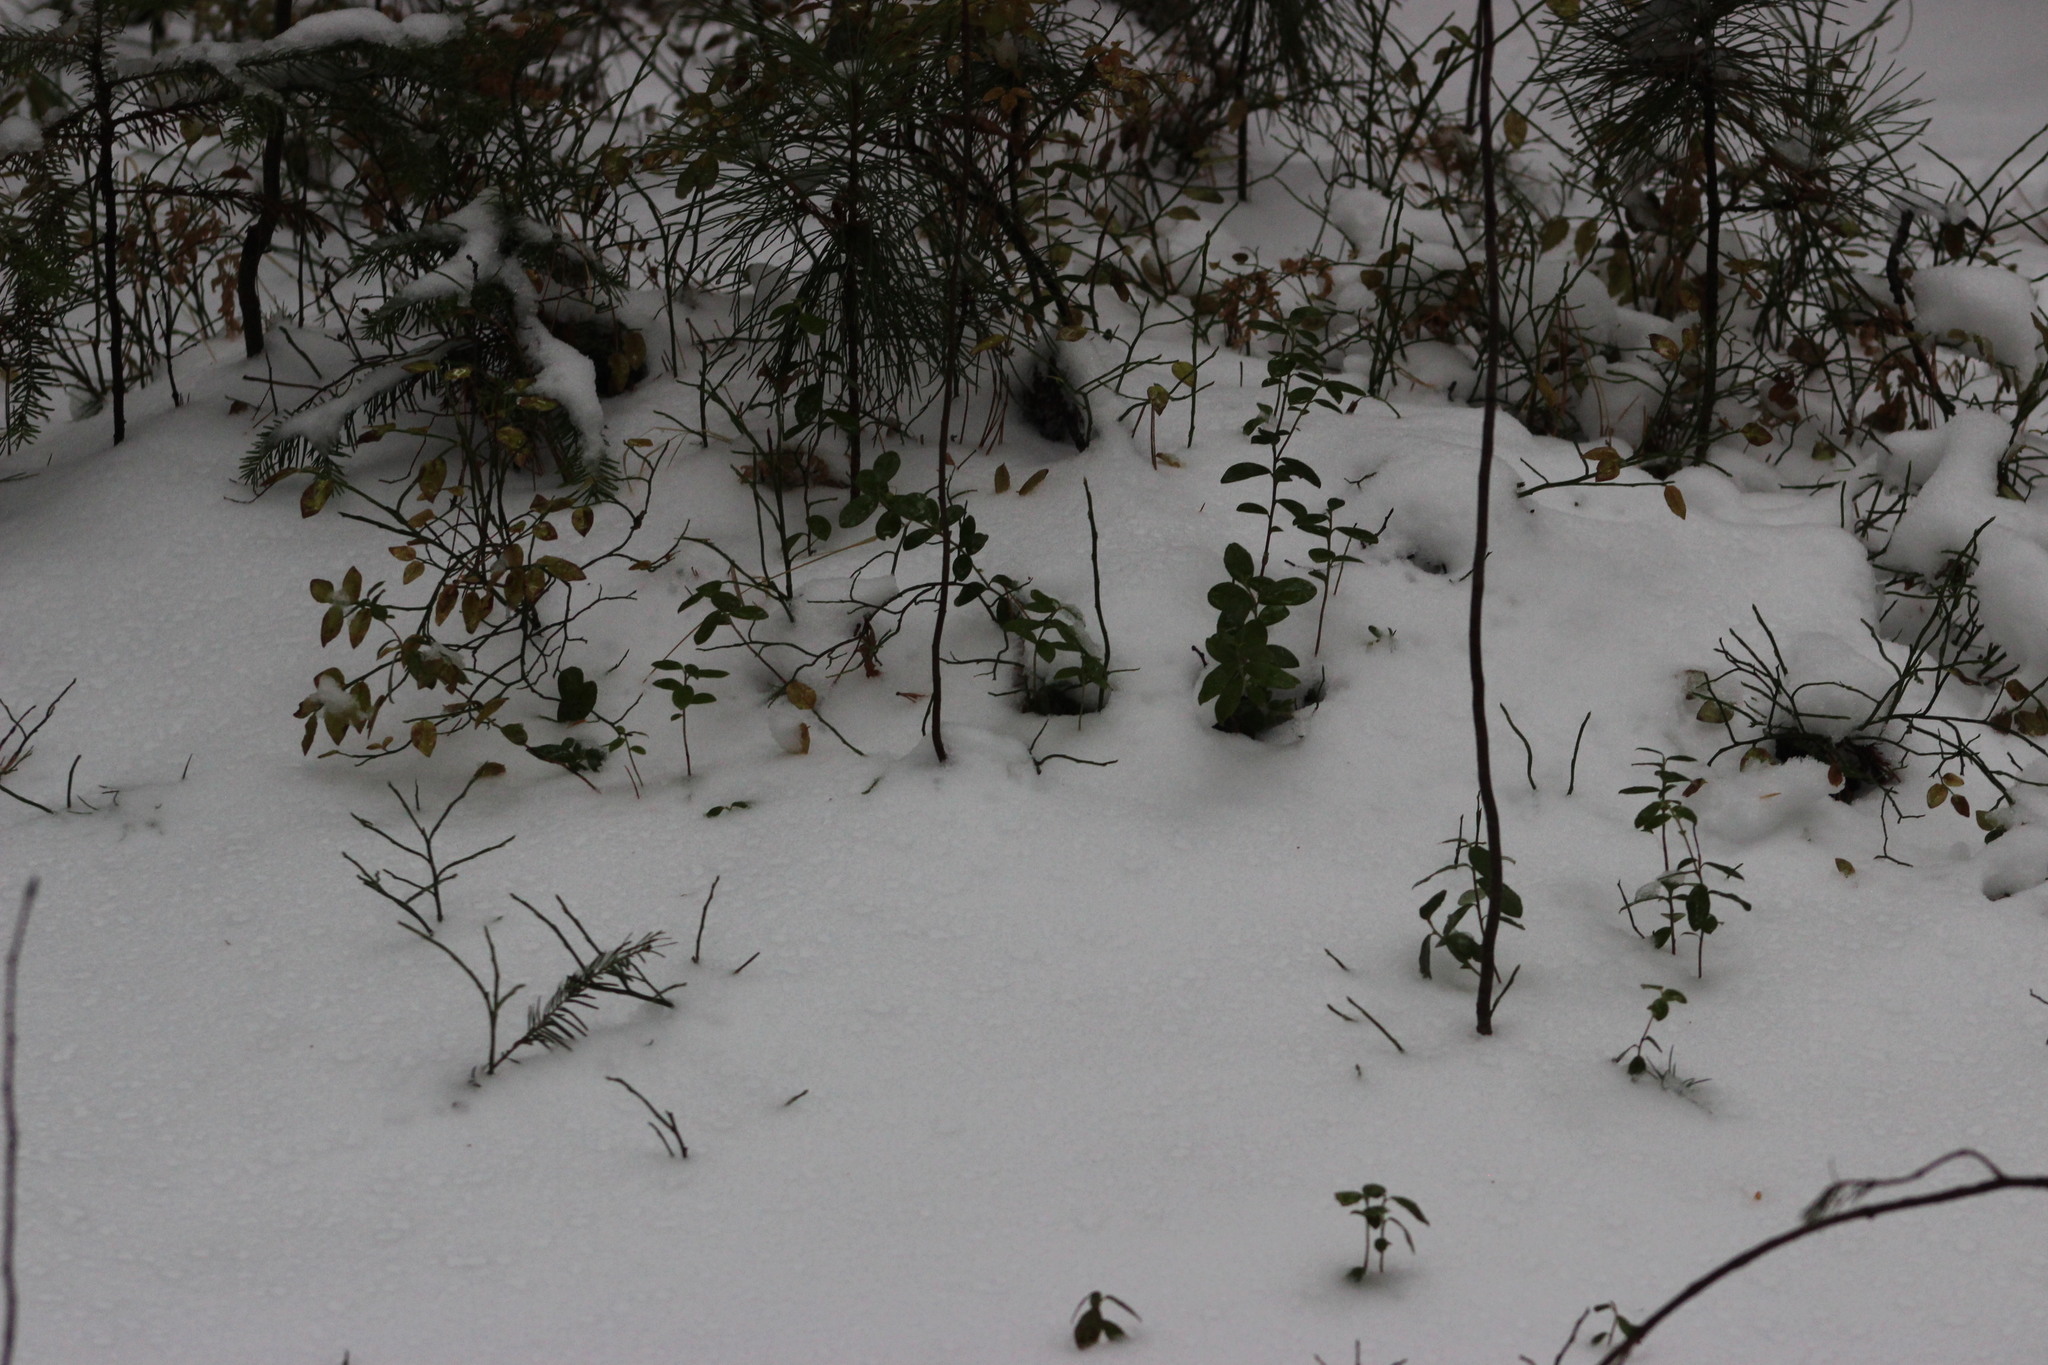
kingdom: Plantae
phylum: Tracheophyta
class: Magnoliopsida
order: Ericales
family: Ericaceae
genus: Vaccinium
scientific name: Vaccinium vitis-idaea
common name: Cowberry
